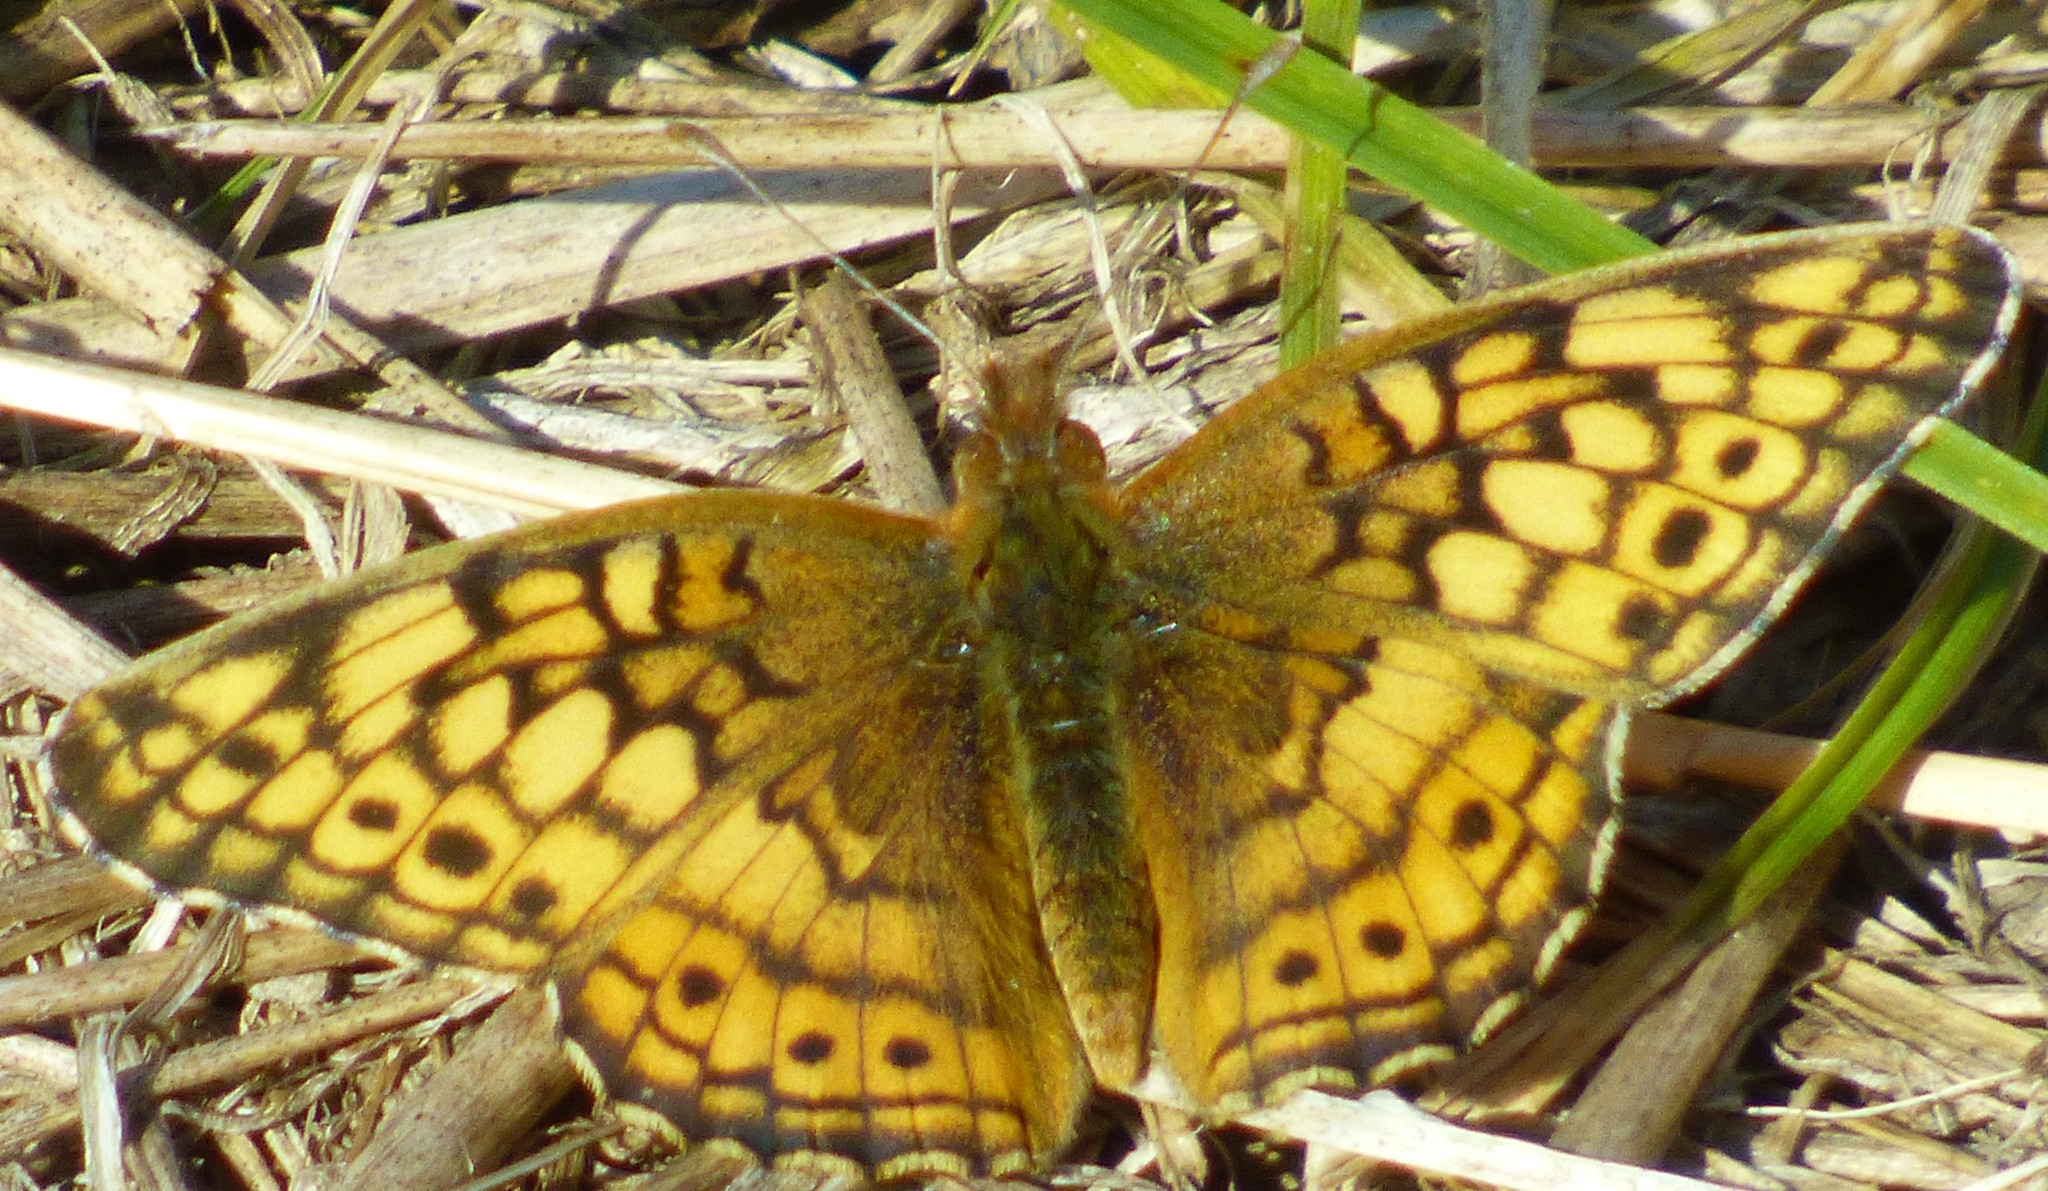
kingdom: Animalia
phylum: Arthropoda
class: Insecta
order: Lepidoptera
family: Nymphalidae
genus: Euptoieta
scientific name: Euptoieta claudia
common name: Variegated fritillary
